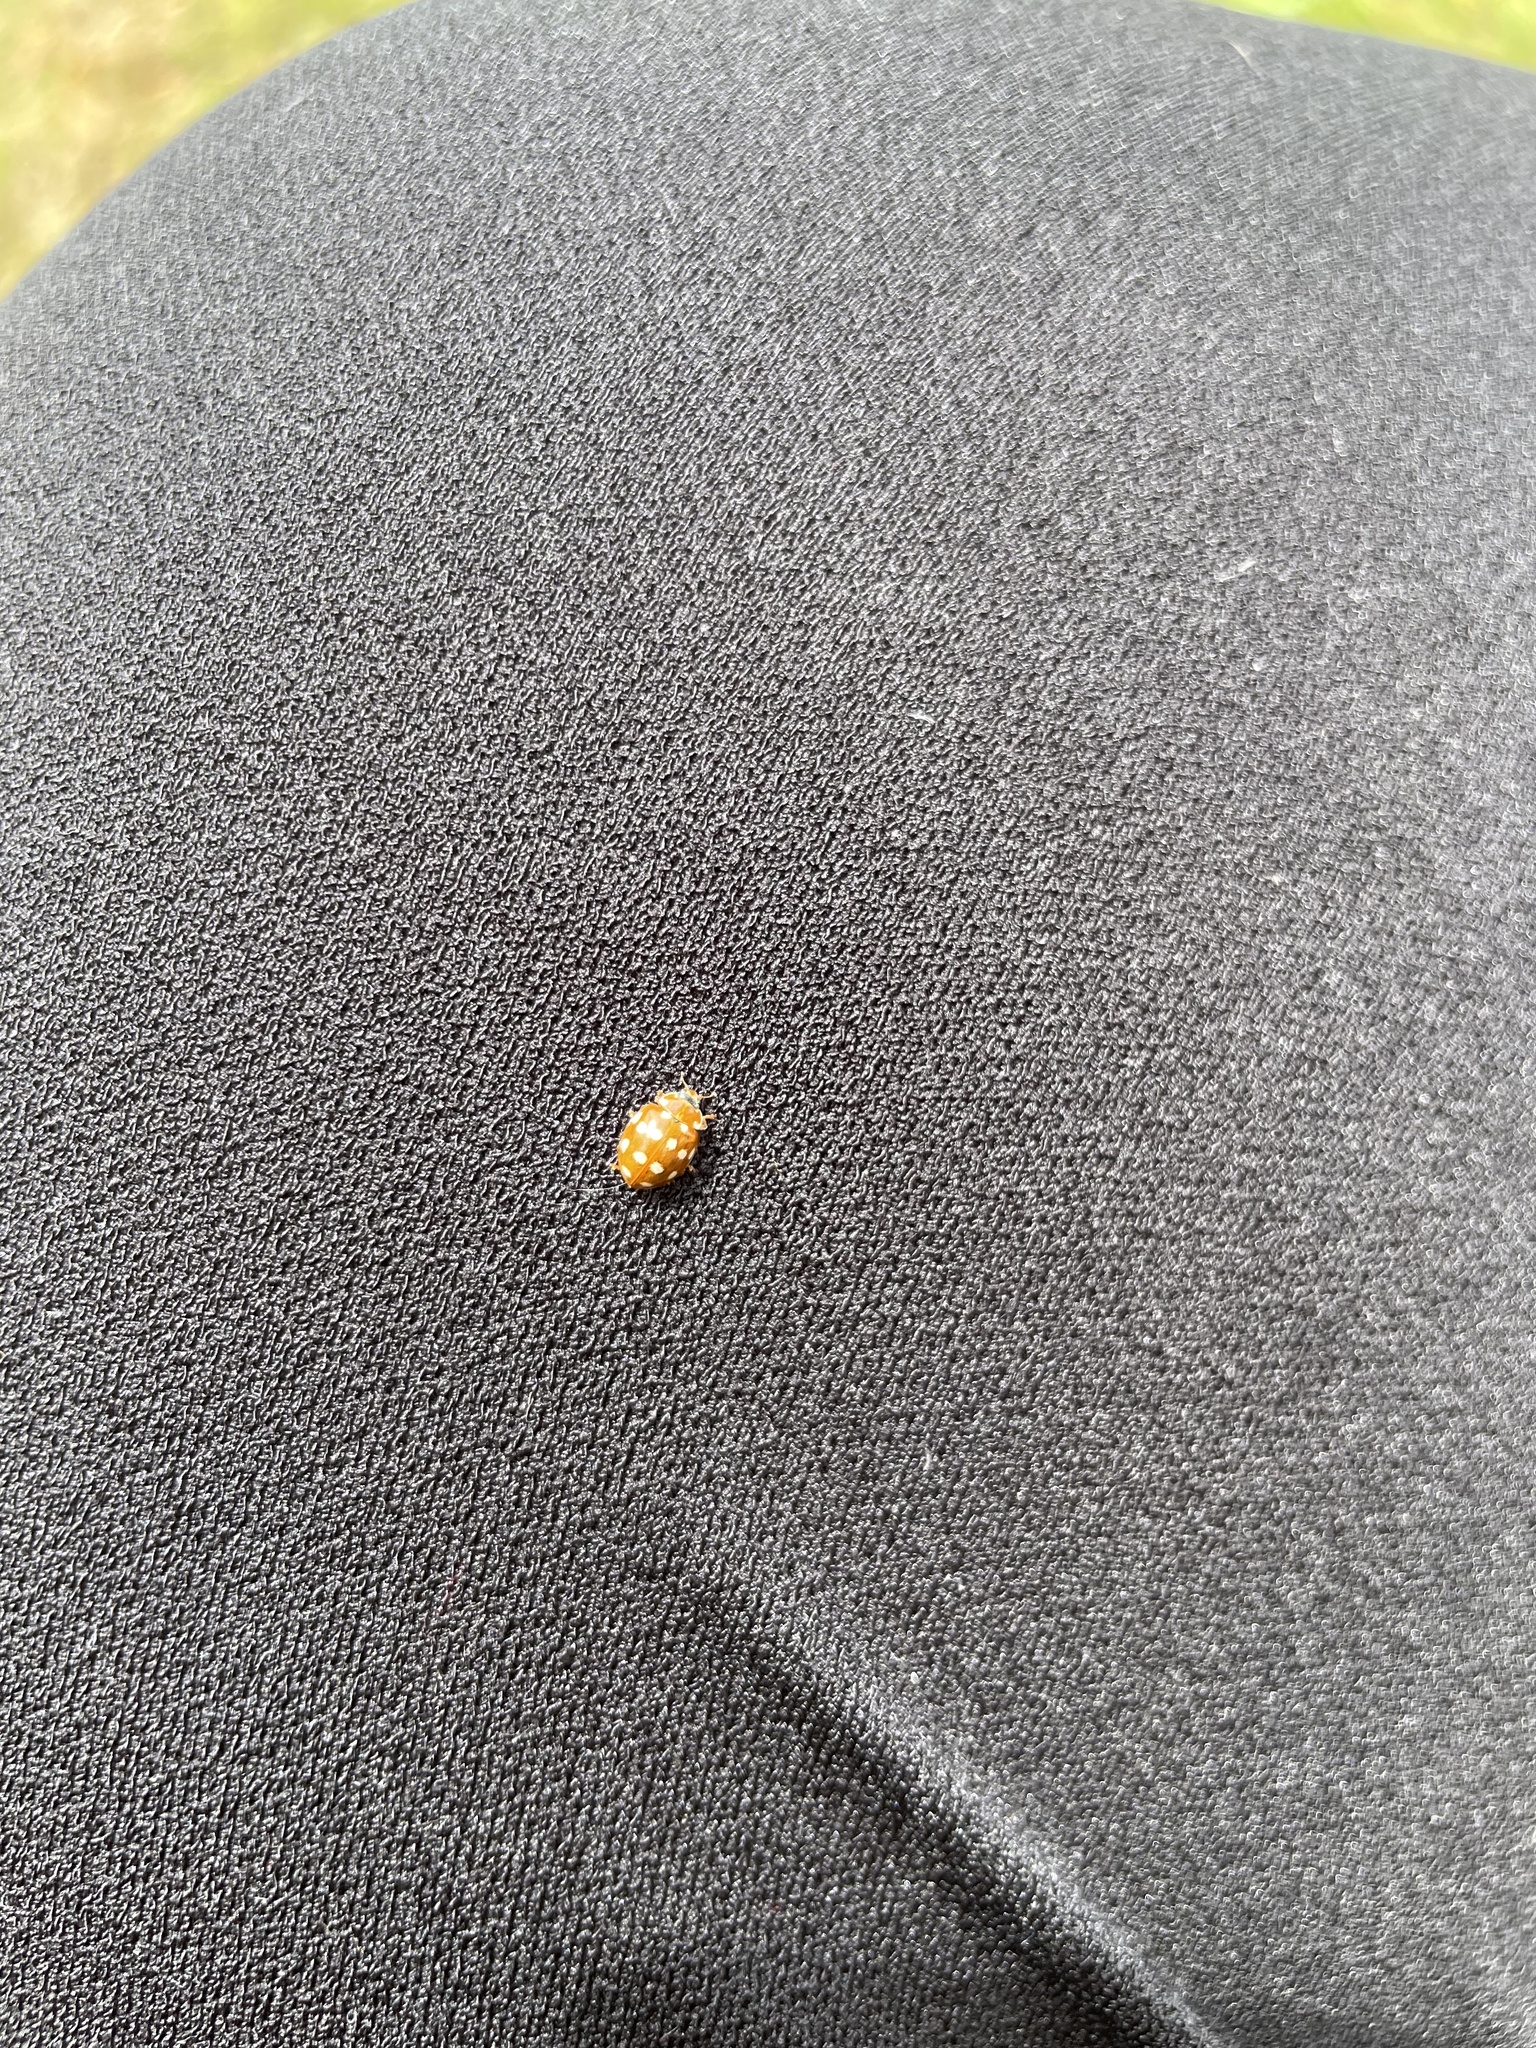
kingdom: Animalia
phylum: Arthropoda
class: Insecta
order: Coleoptera
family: Coccinellidae
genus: Calvia
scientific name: Calvia quatuordecimguttata
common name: Cream-spot ladybird
